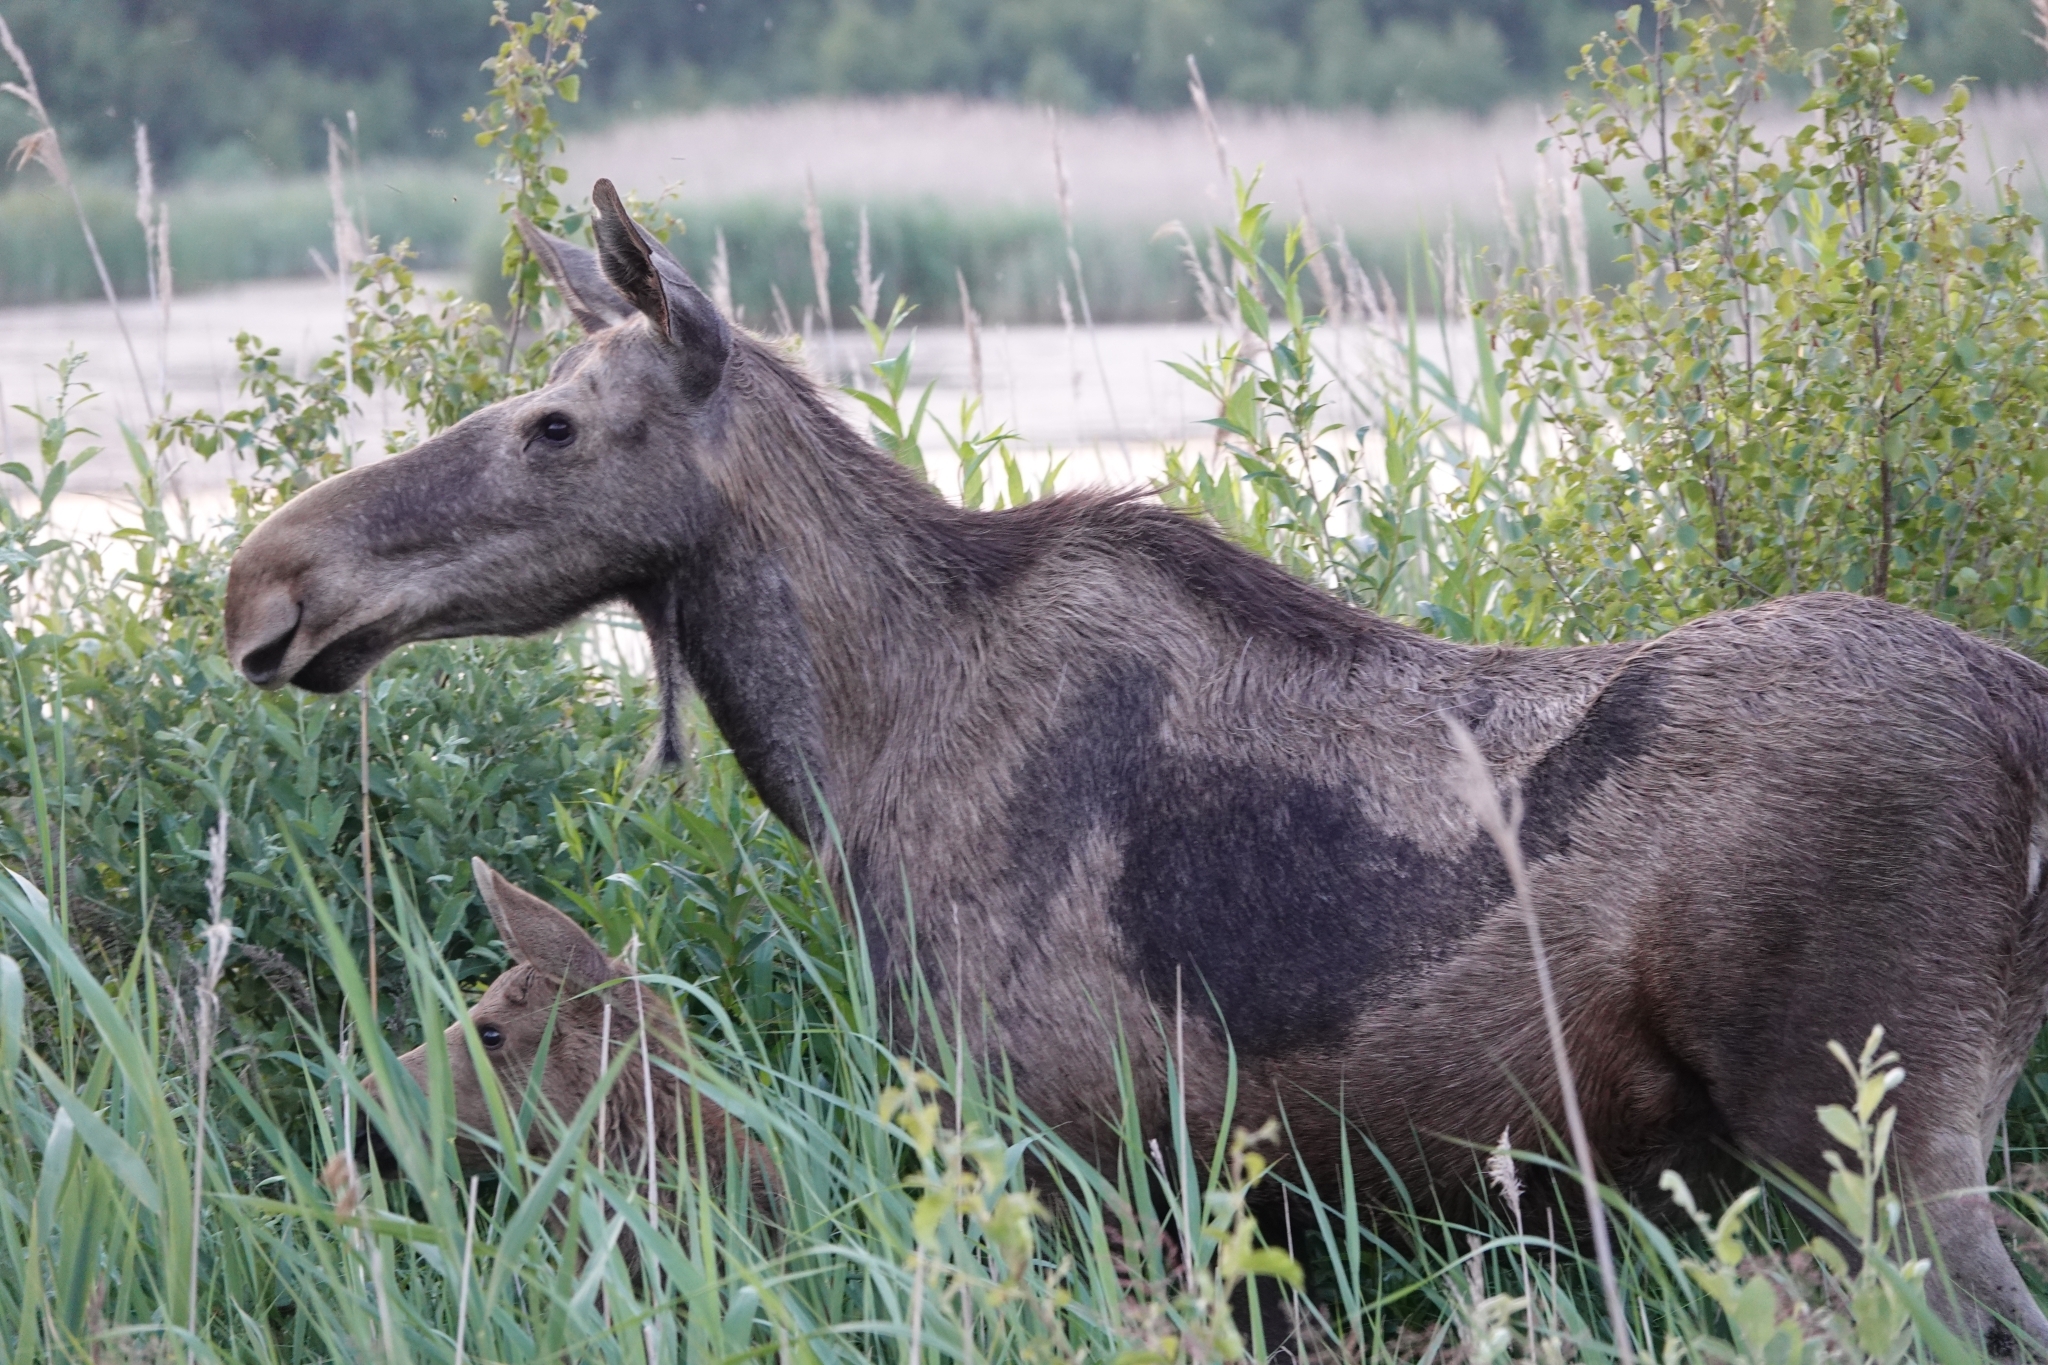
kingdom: Animalia
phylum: Chordata
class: Mammalia
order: Artiodactyla
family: Cervidae
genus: Alces
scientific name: Alces alces
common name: Moose
